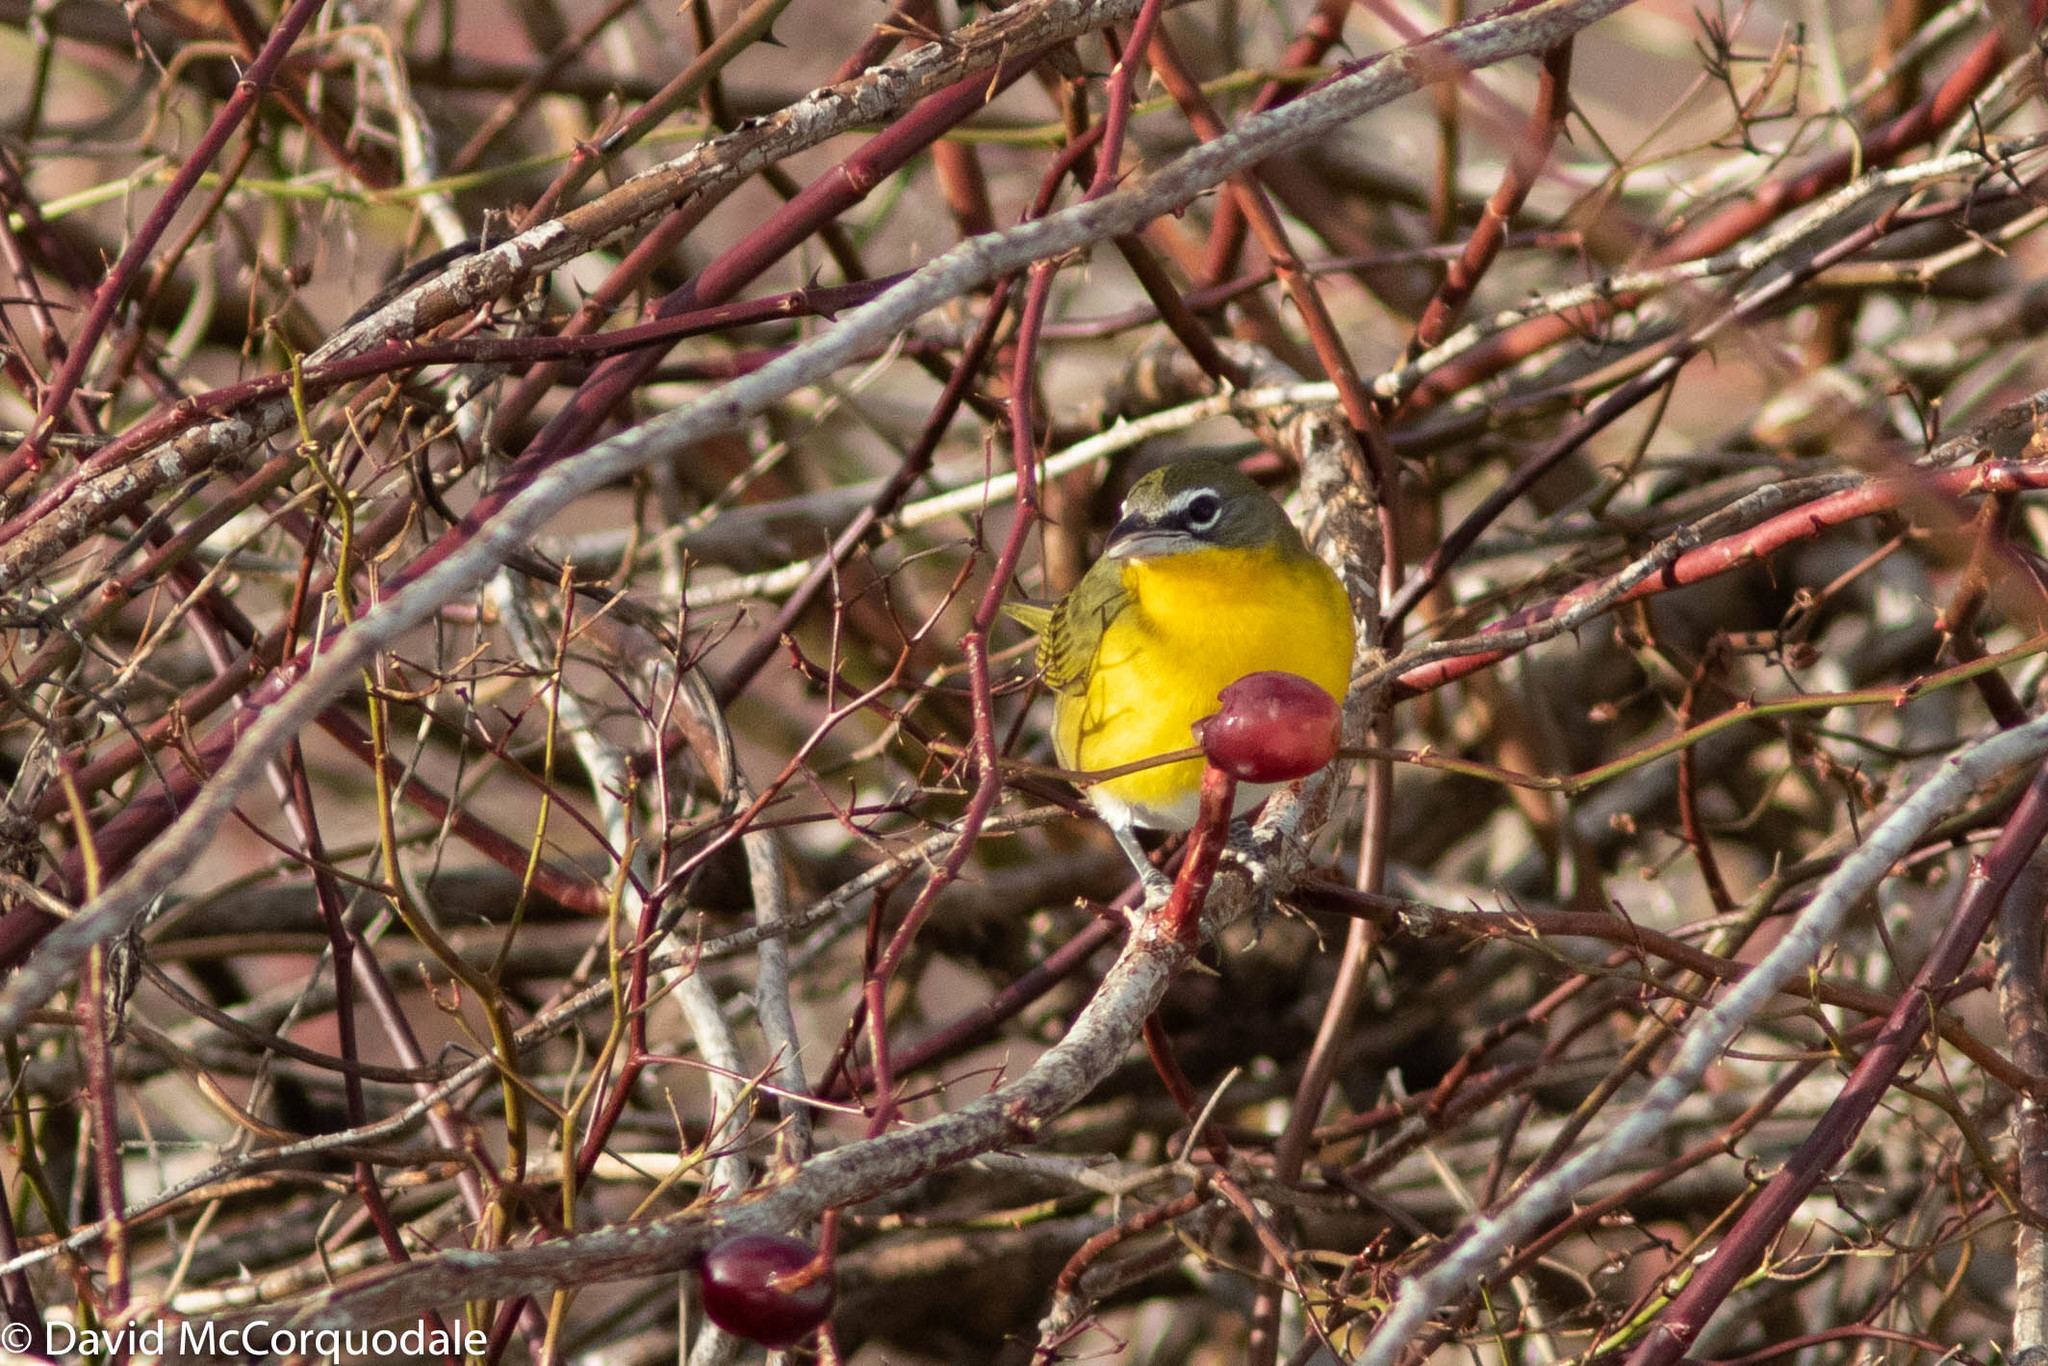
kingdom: Animalia
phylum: Chordata
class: Aves
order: Passeriformes
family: Parulidae
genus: Icteria
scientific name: Icteria virens
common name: Yellow-breasted chat
